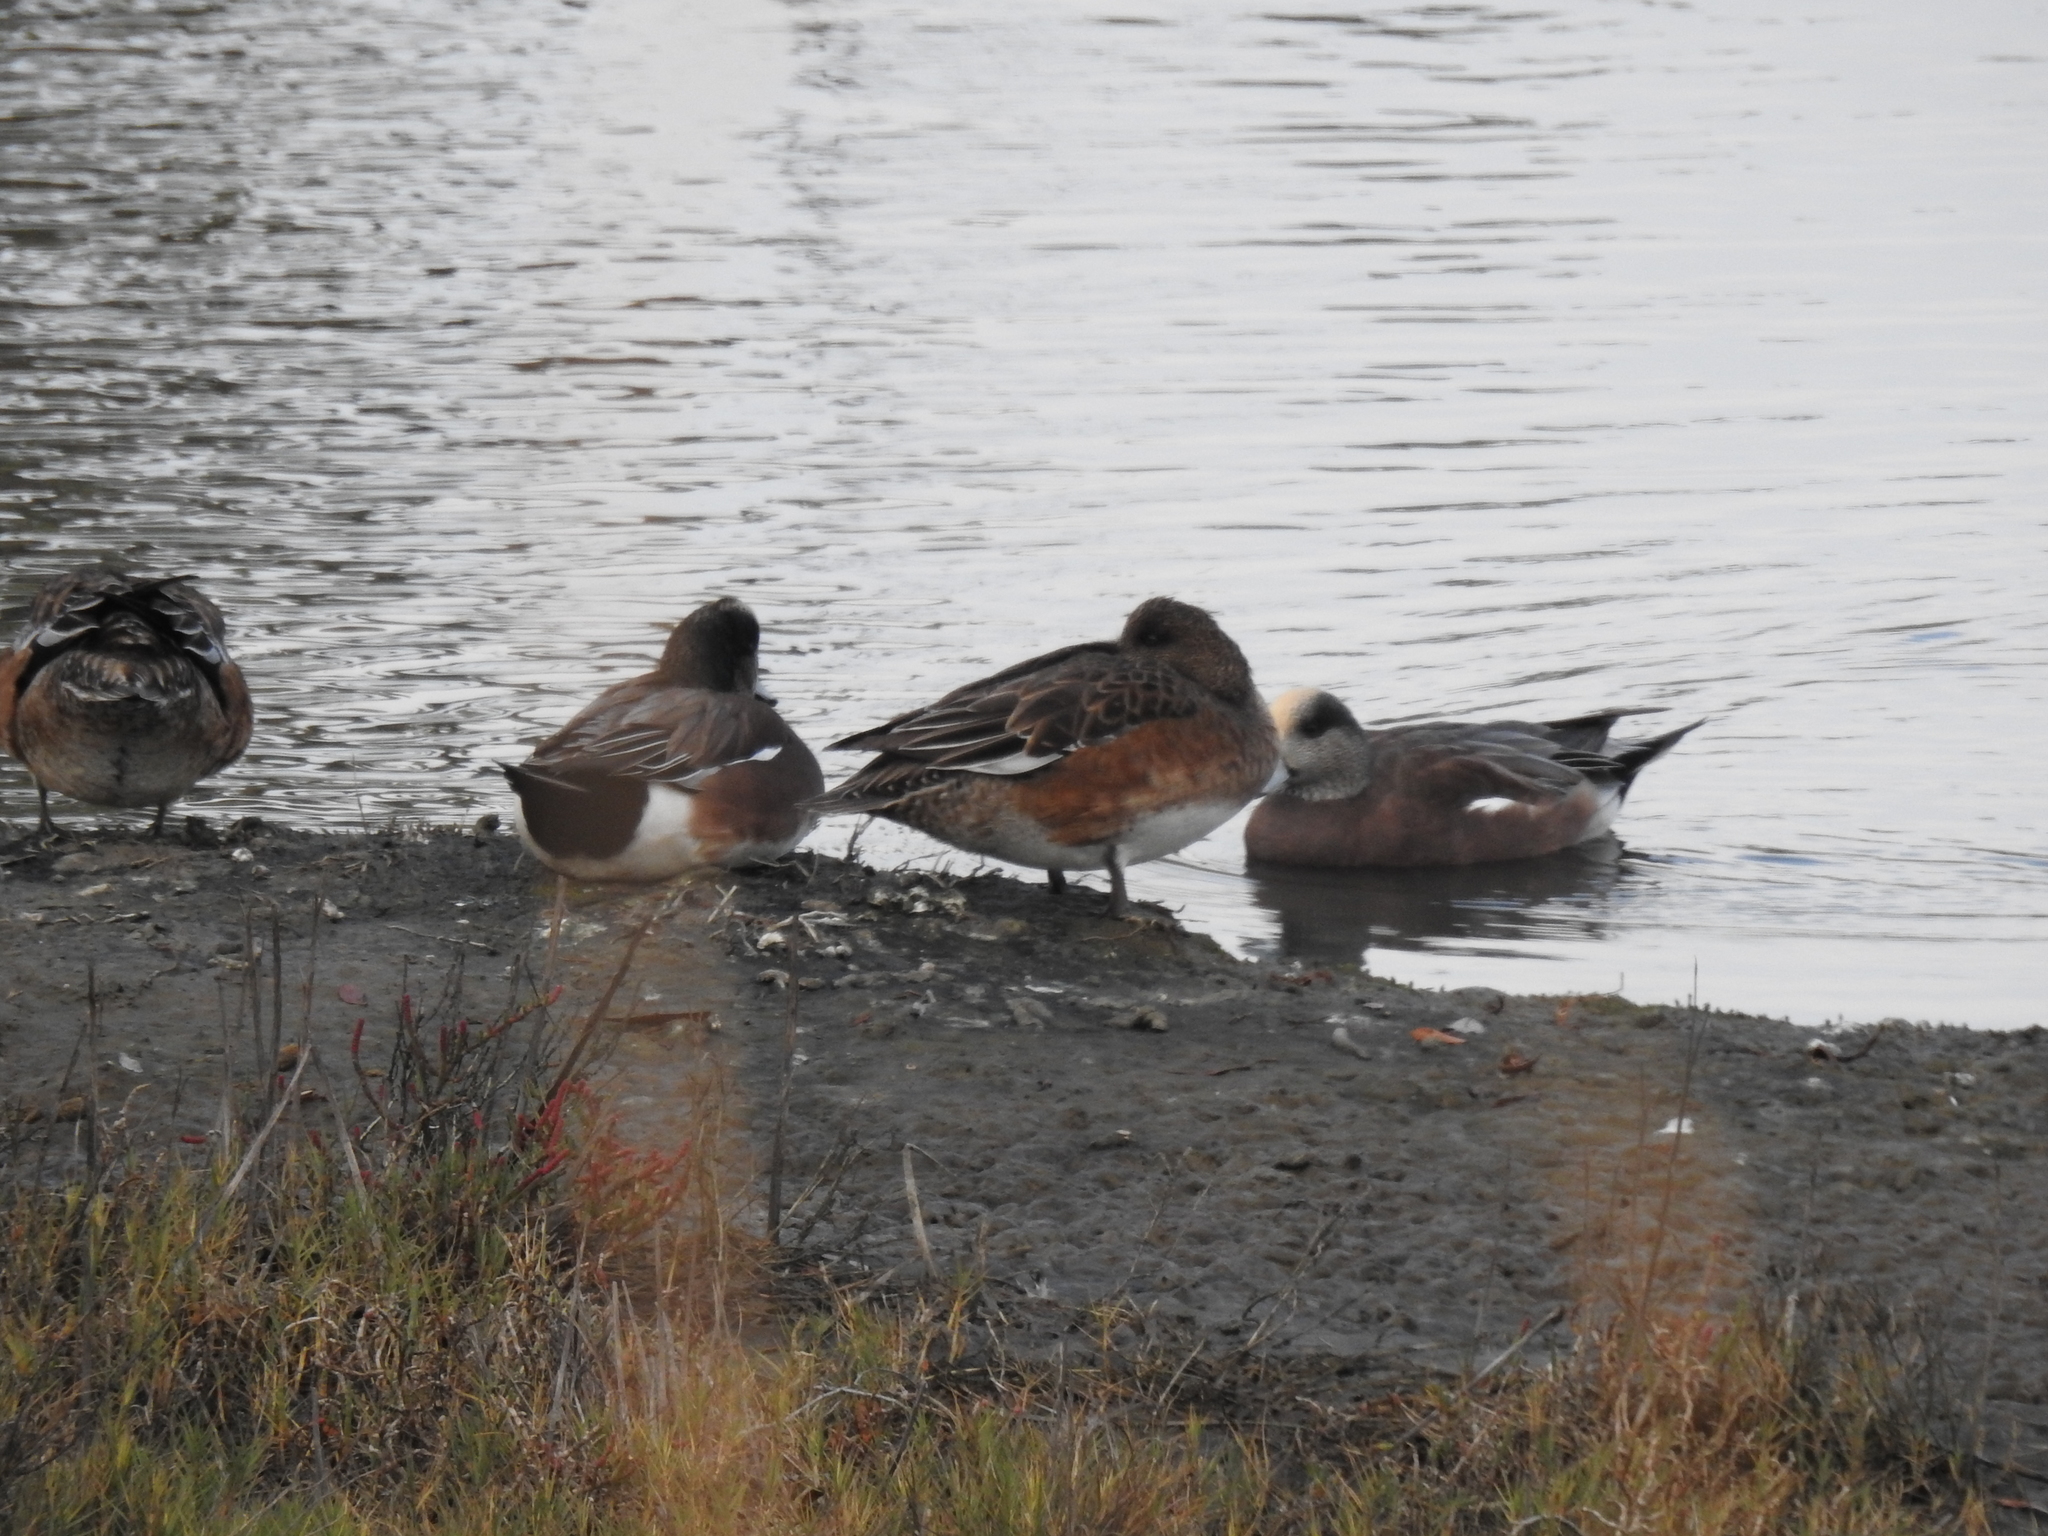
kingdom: Animalia
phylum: Chordata
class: Aves
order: Anseriformes
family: Anatidae
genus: Mareca
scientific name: Mareca americana
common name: American wigeon
